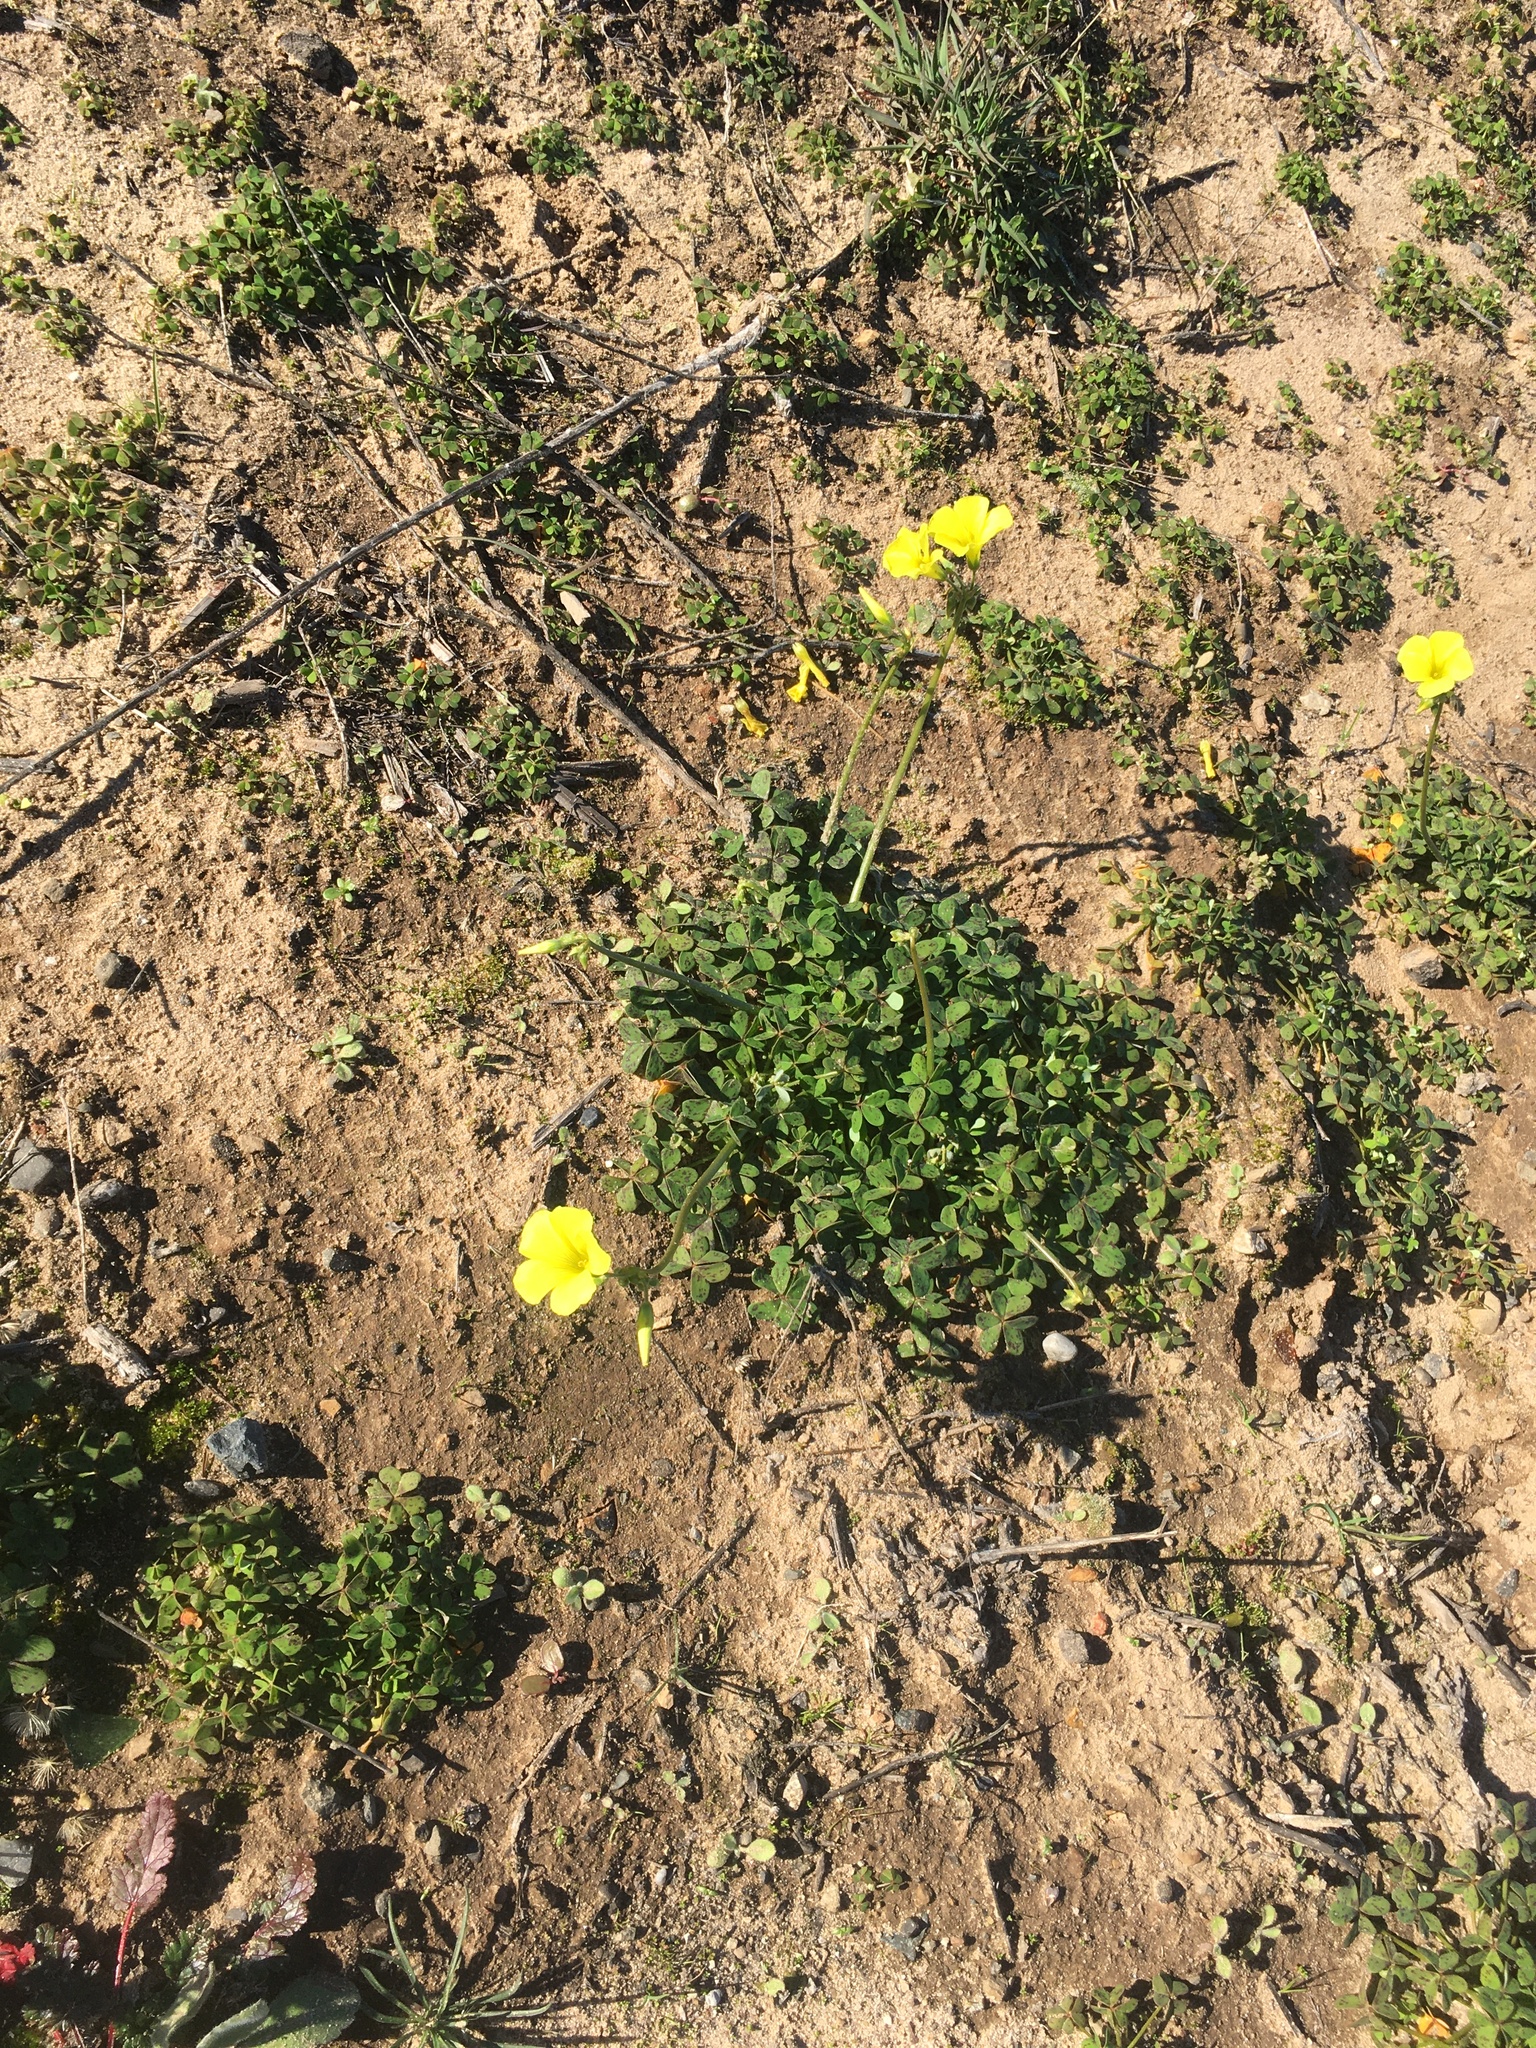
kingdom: Plantae
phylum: Tracheophyta
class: Magnoliopsida
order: Oxalidales
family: Oxalidaceae
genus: Oxalis
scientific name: Oxalis pes-caprae
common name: Bermuda-buttercup
